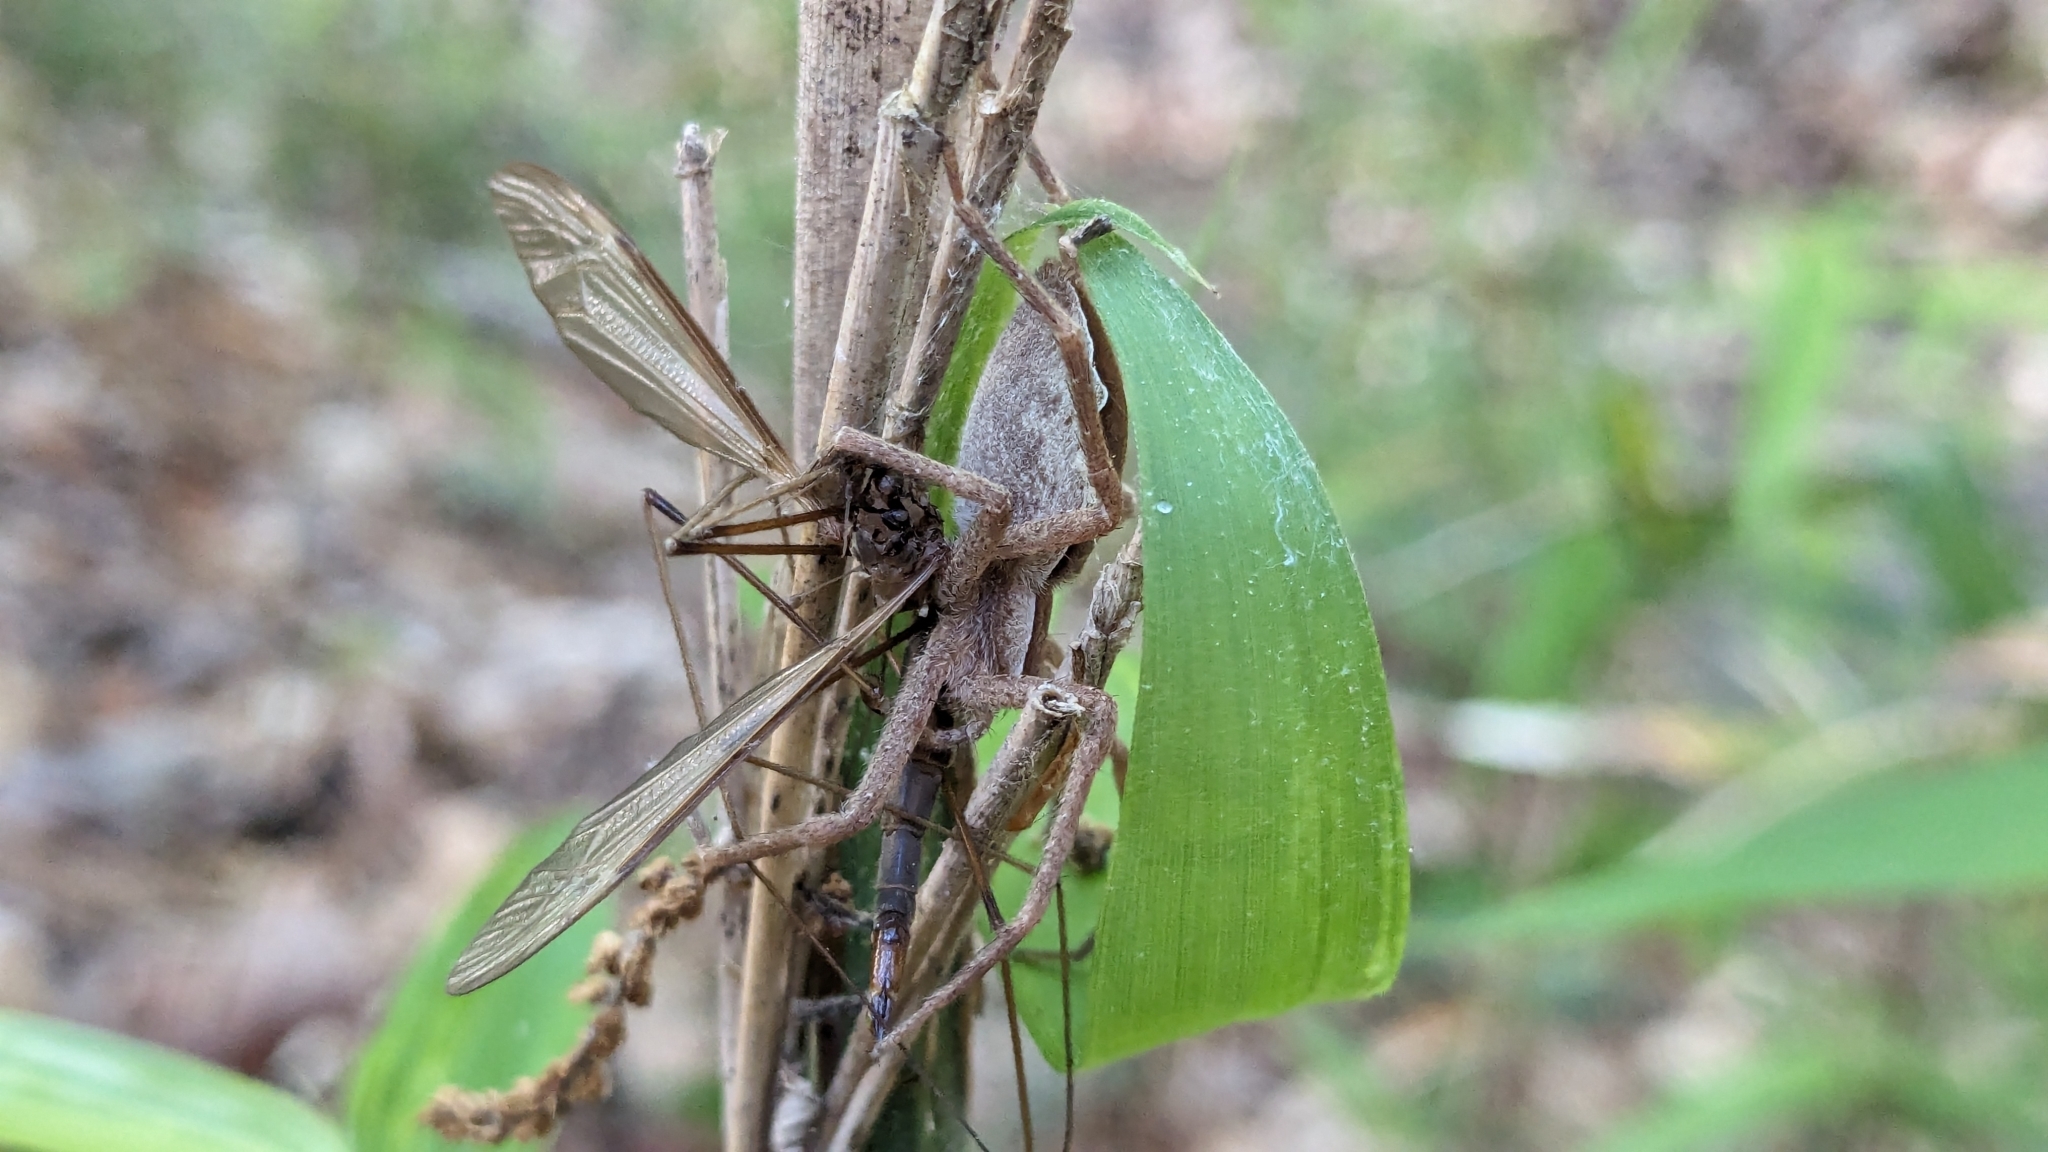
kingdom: Animalia
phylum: Arthropoda
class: Arachnida
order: Araneae
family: Pisauridae
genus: Pisaurina
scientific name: Pisaurina mira
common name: American nursery web spider
